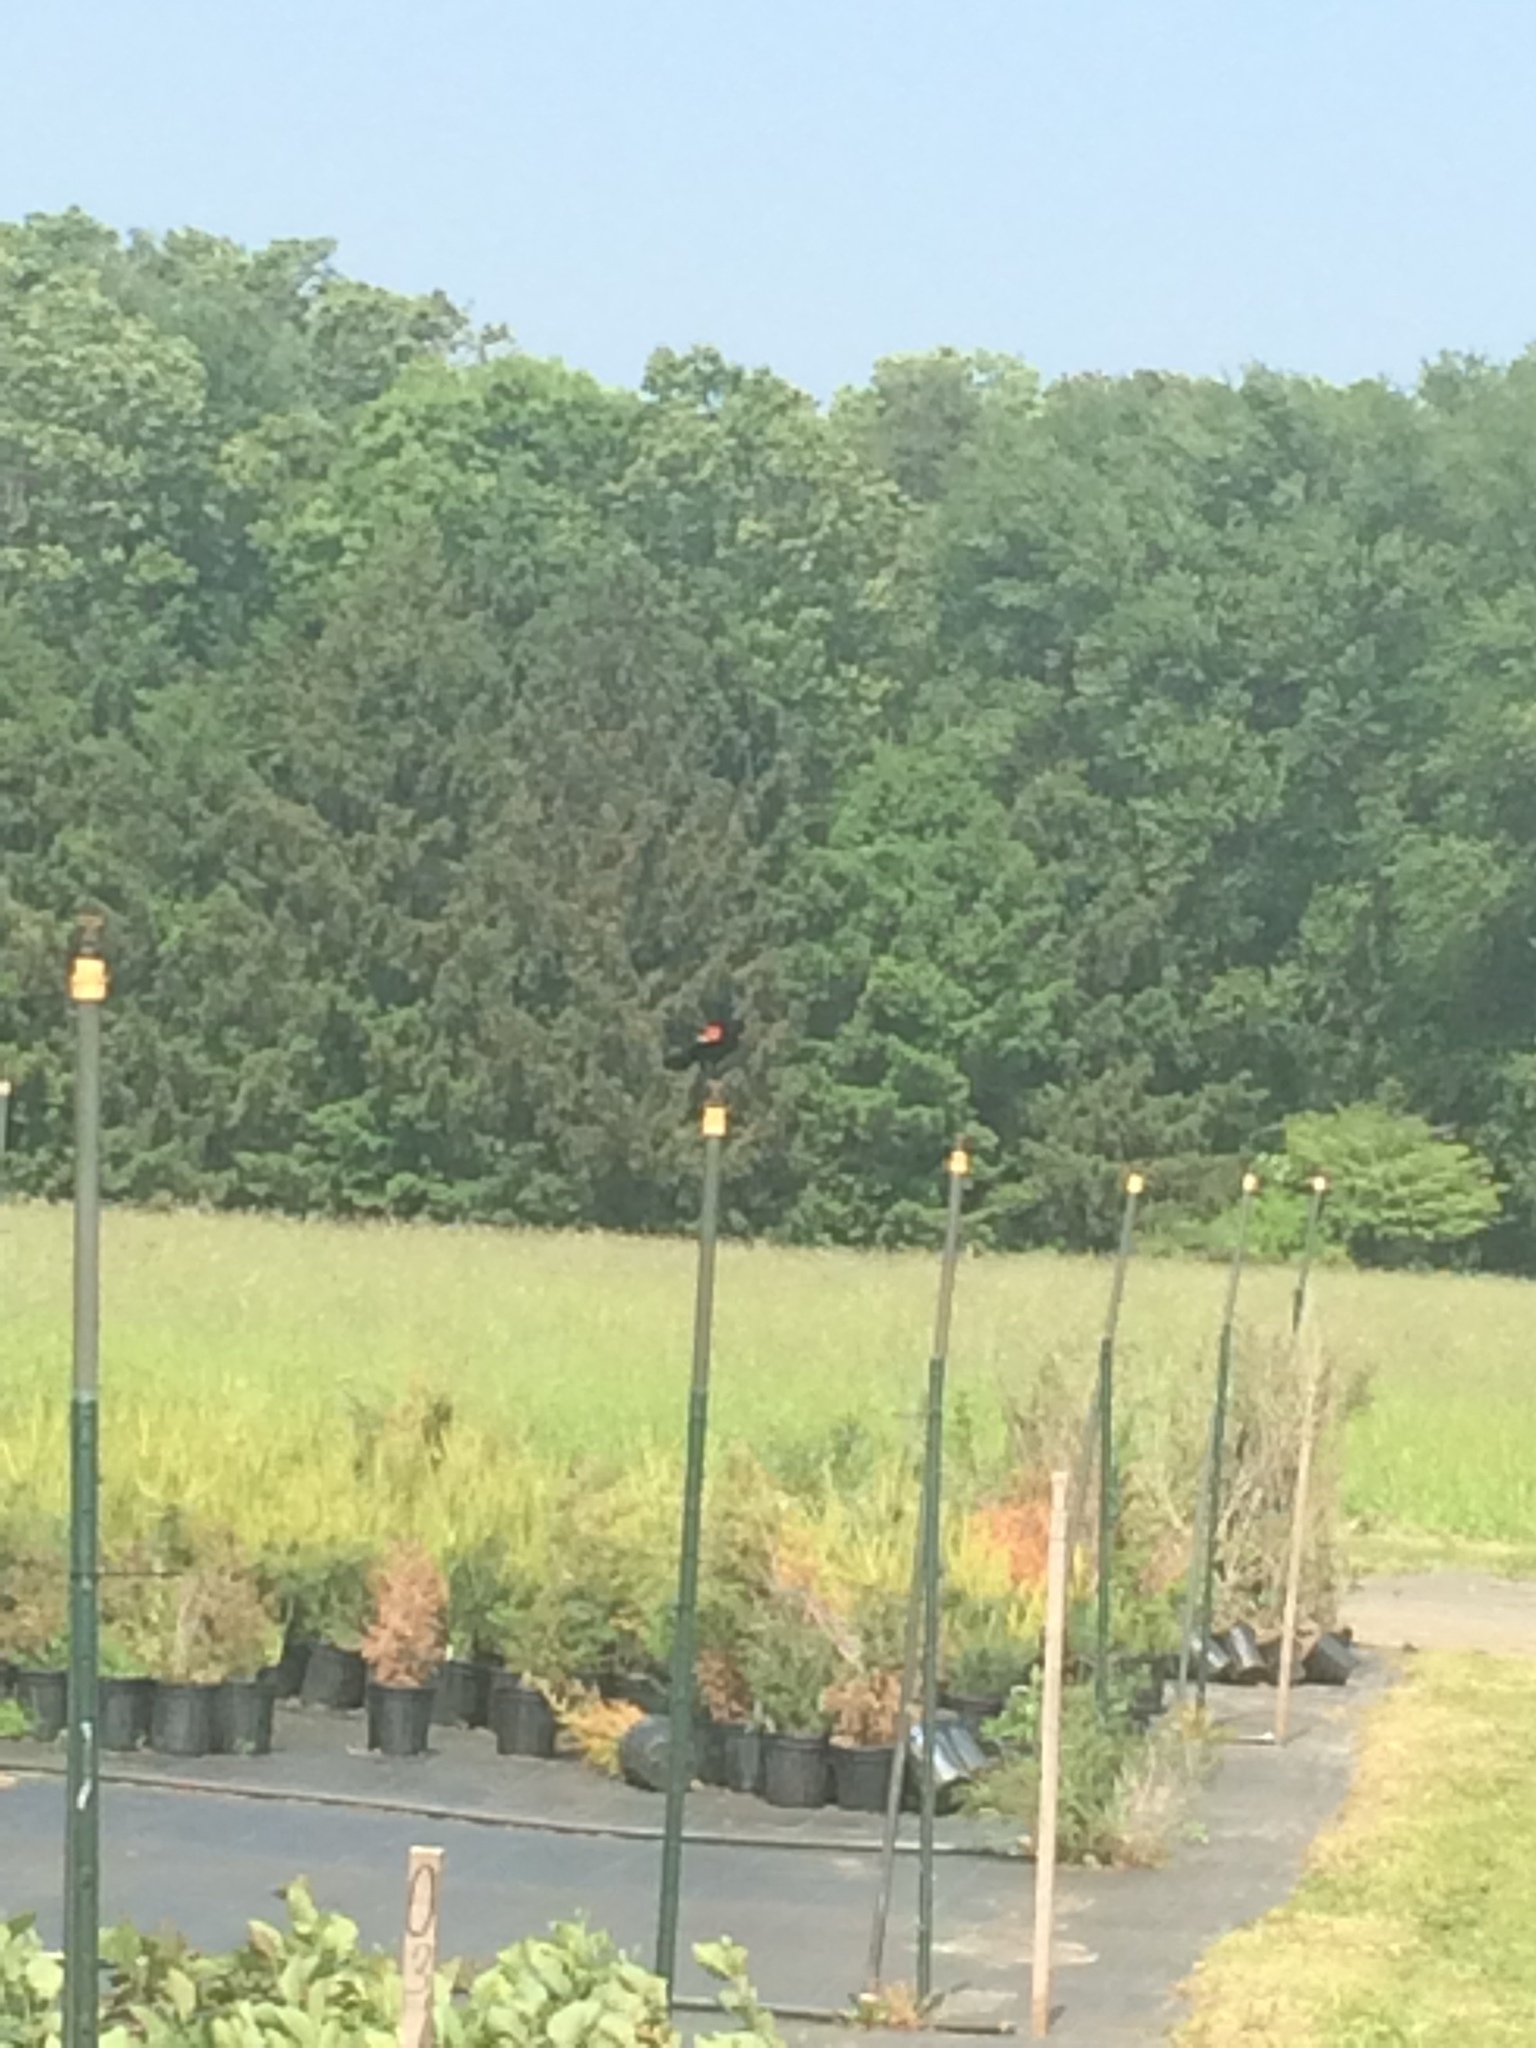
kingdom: Animalia
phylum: Chordata
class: Aves
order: Passeriformes
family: Icteridae
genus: Agelaius
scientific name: Agelaius phoeniceus
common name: Red-winged blackbird
